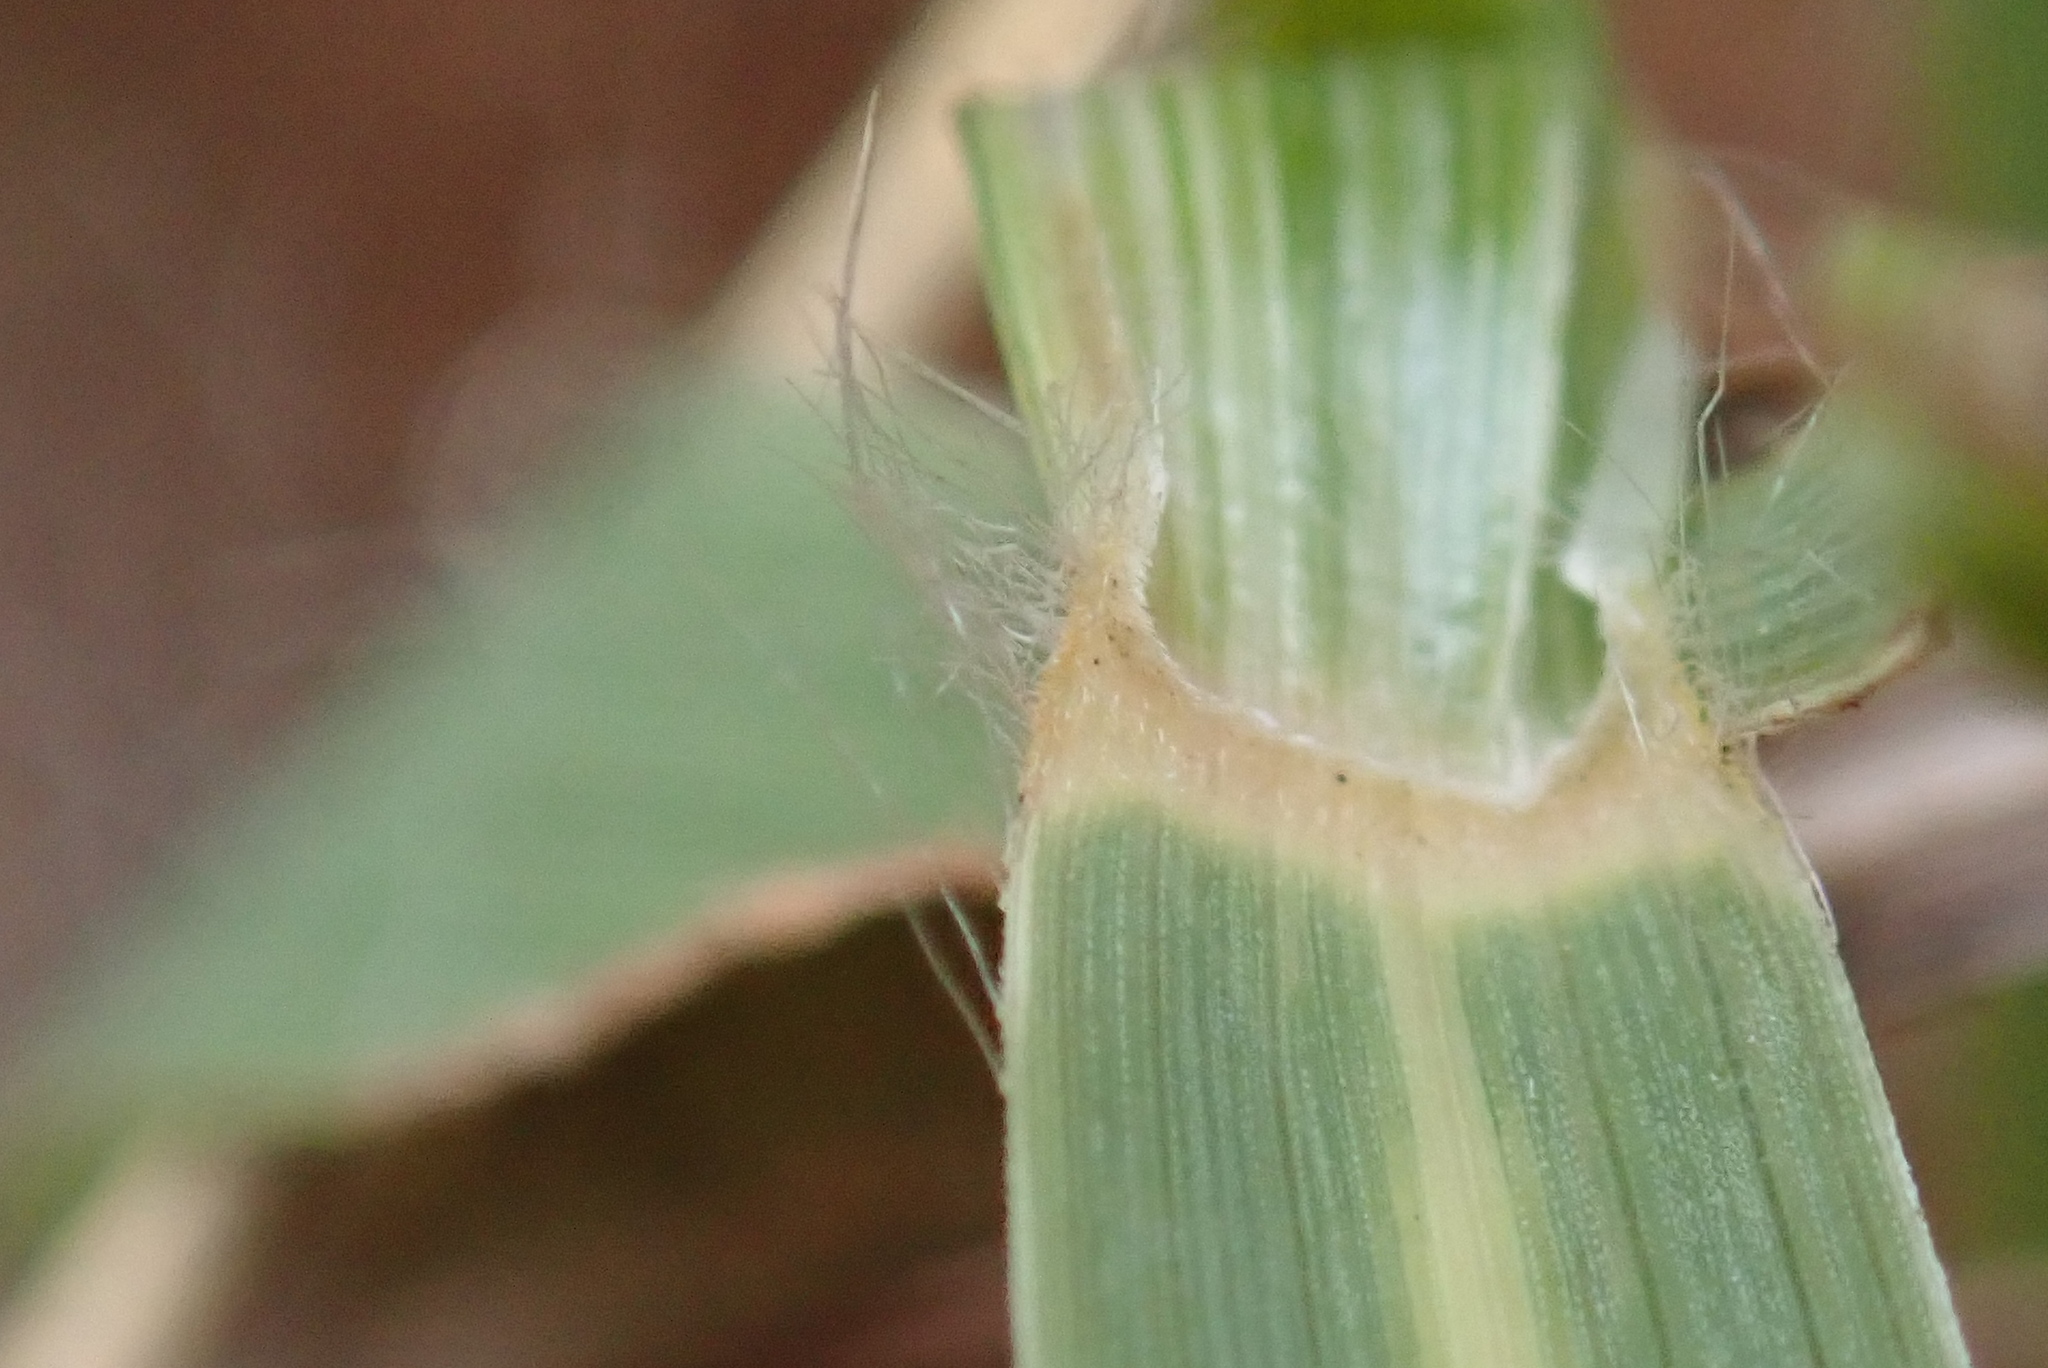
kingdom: Plantae
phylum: Tracheophyta
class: Liliopsida
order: Poales
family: Poaceae
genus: Eragrostis
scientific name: Eragrostis capensis
